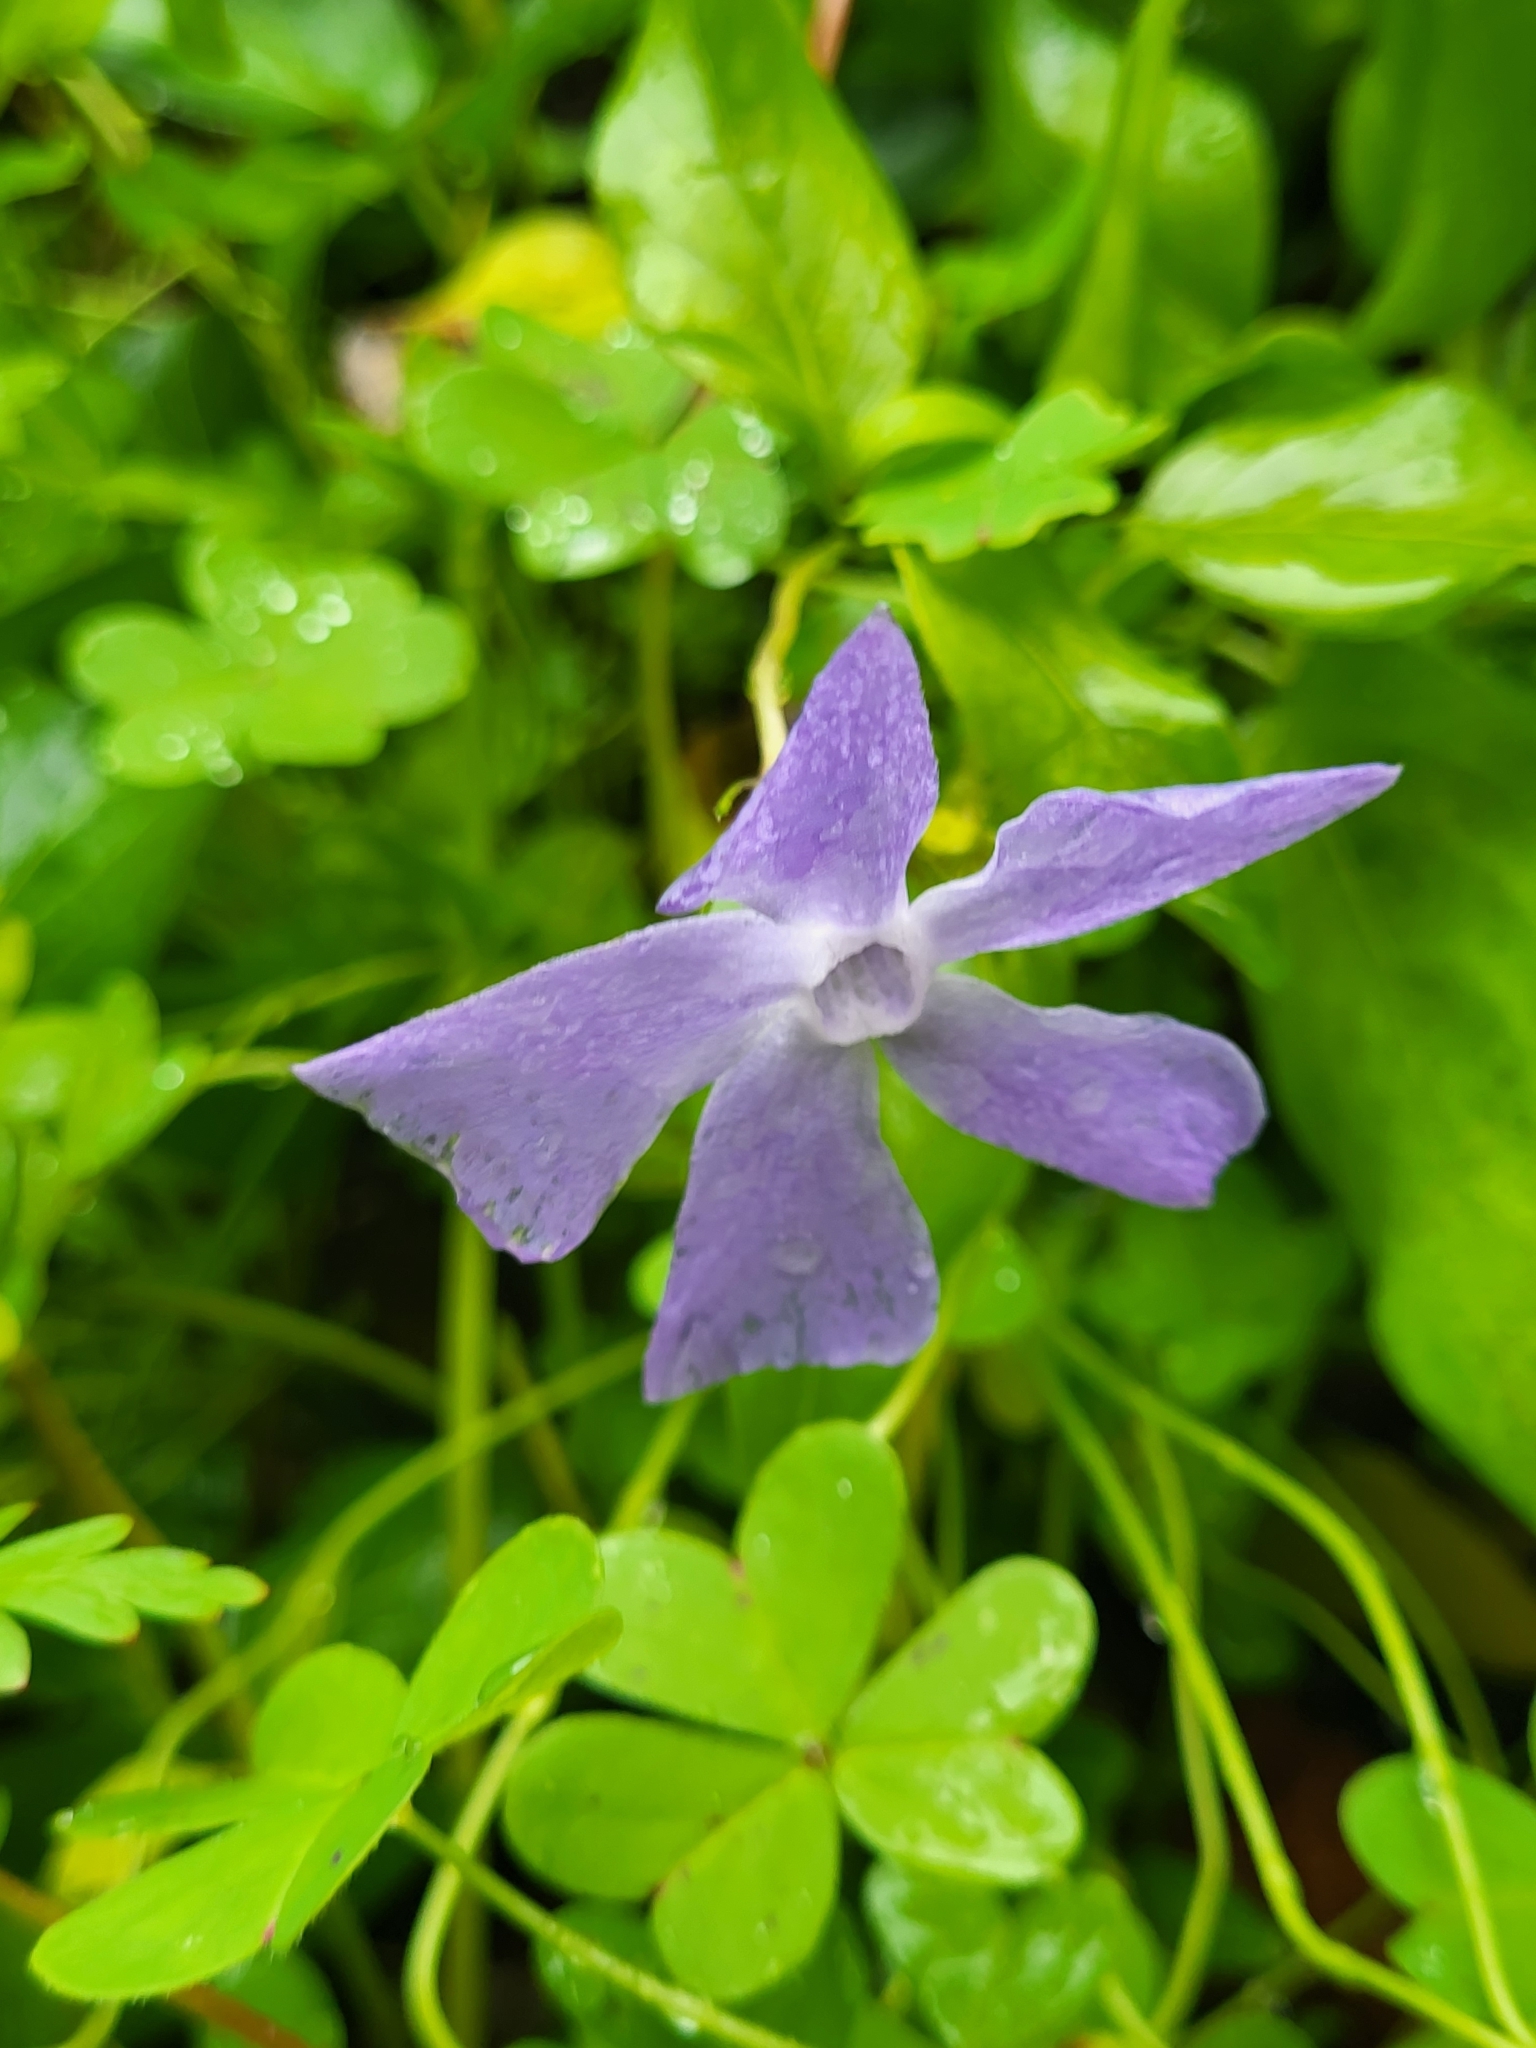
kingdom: Plantae
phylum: Tracheophyta
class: Magnoliopsida
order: Gentianales
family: Apocynaceae
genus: Vinca
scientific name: Vinca major
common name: Greater periwinkle
